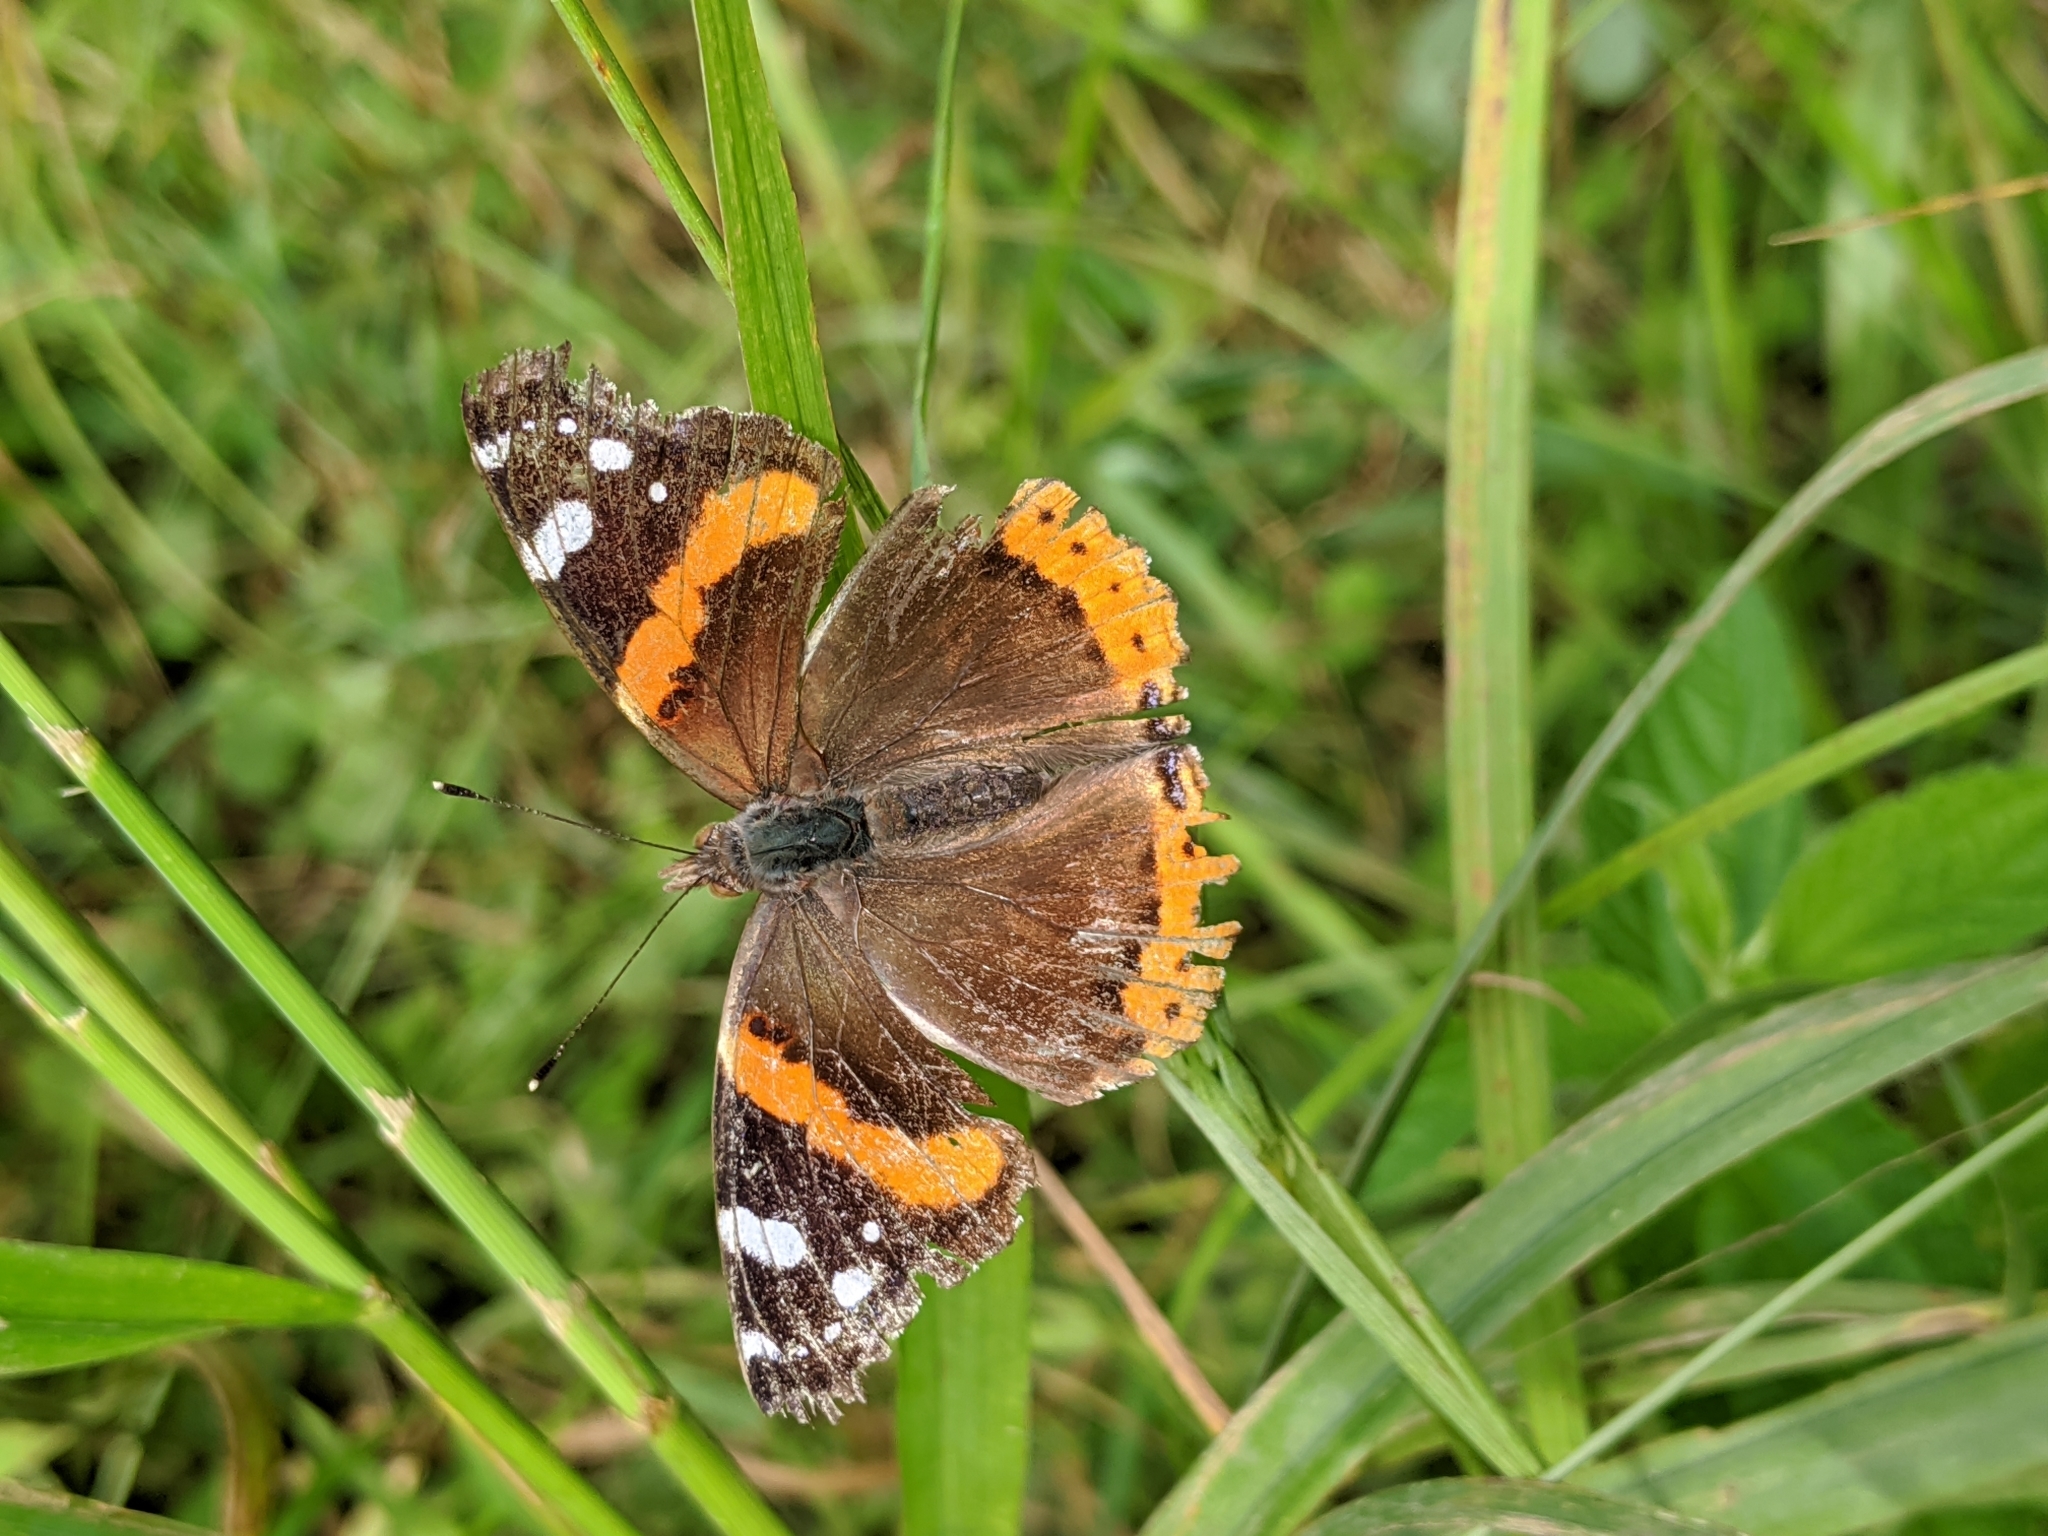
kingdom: Animalia
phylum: Arthropoda
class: Insecta
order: Lepidoptera
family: Nymphalidae
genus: Vanessa
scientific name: Vanessa atalanta
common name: Red admiral
